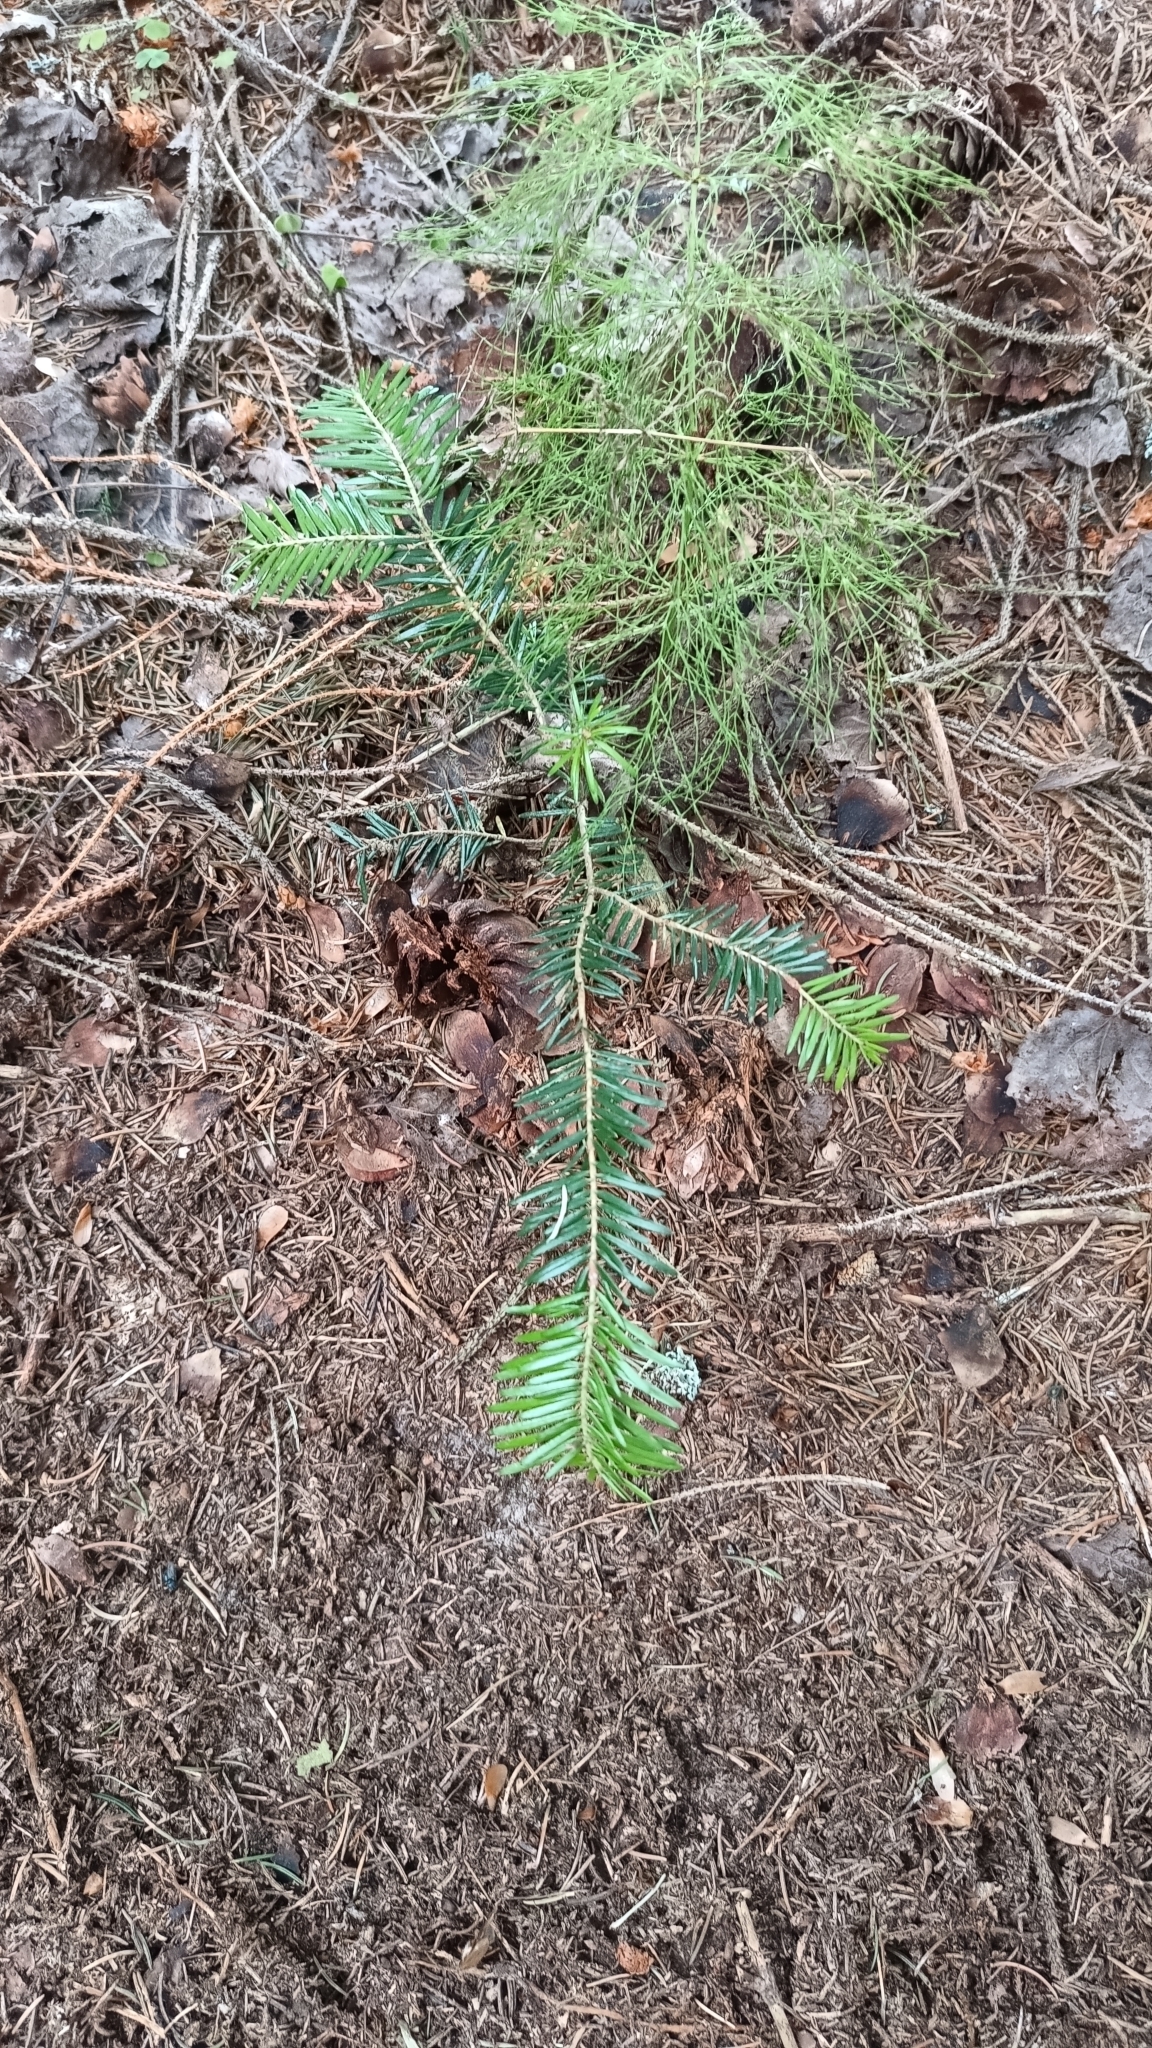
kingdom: Plantae
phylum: Tracheophyta
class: Pinopsida
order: Pinales
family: Pinaceae
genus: Abies
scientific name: Abies alba
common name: Silver fir
